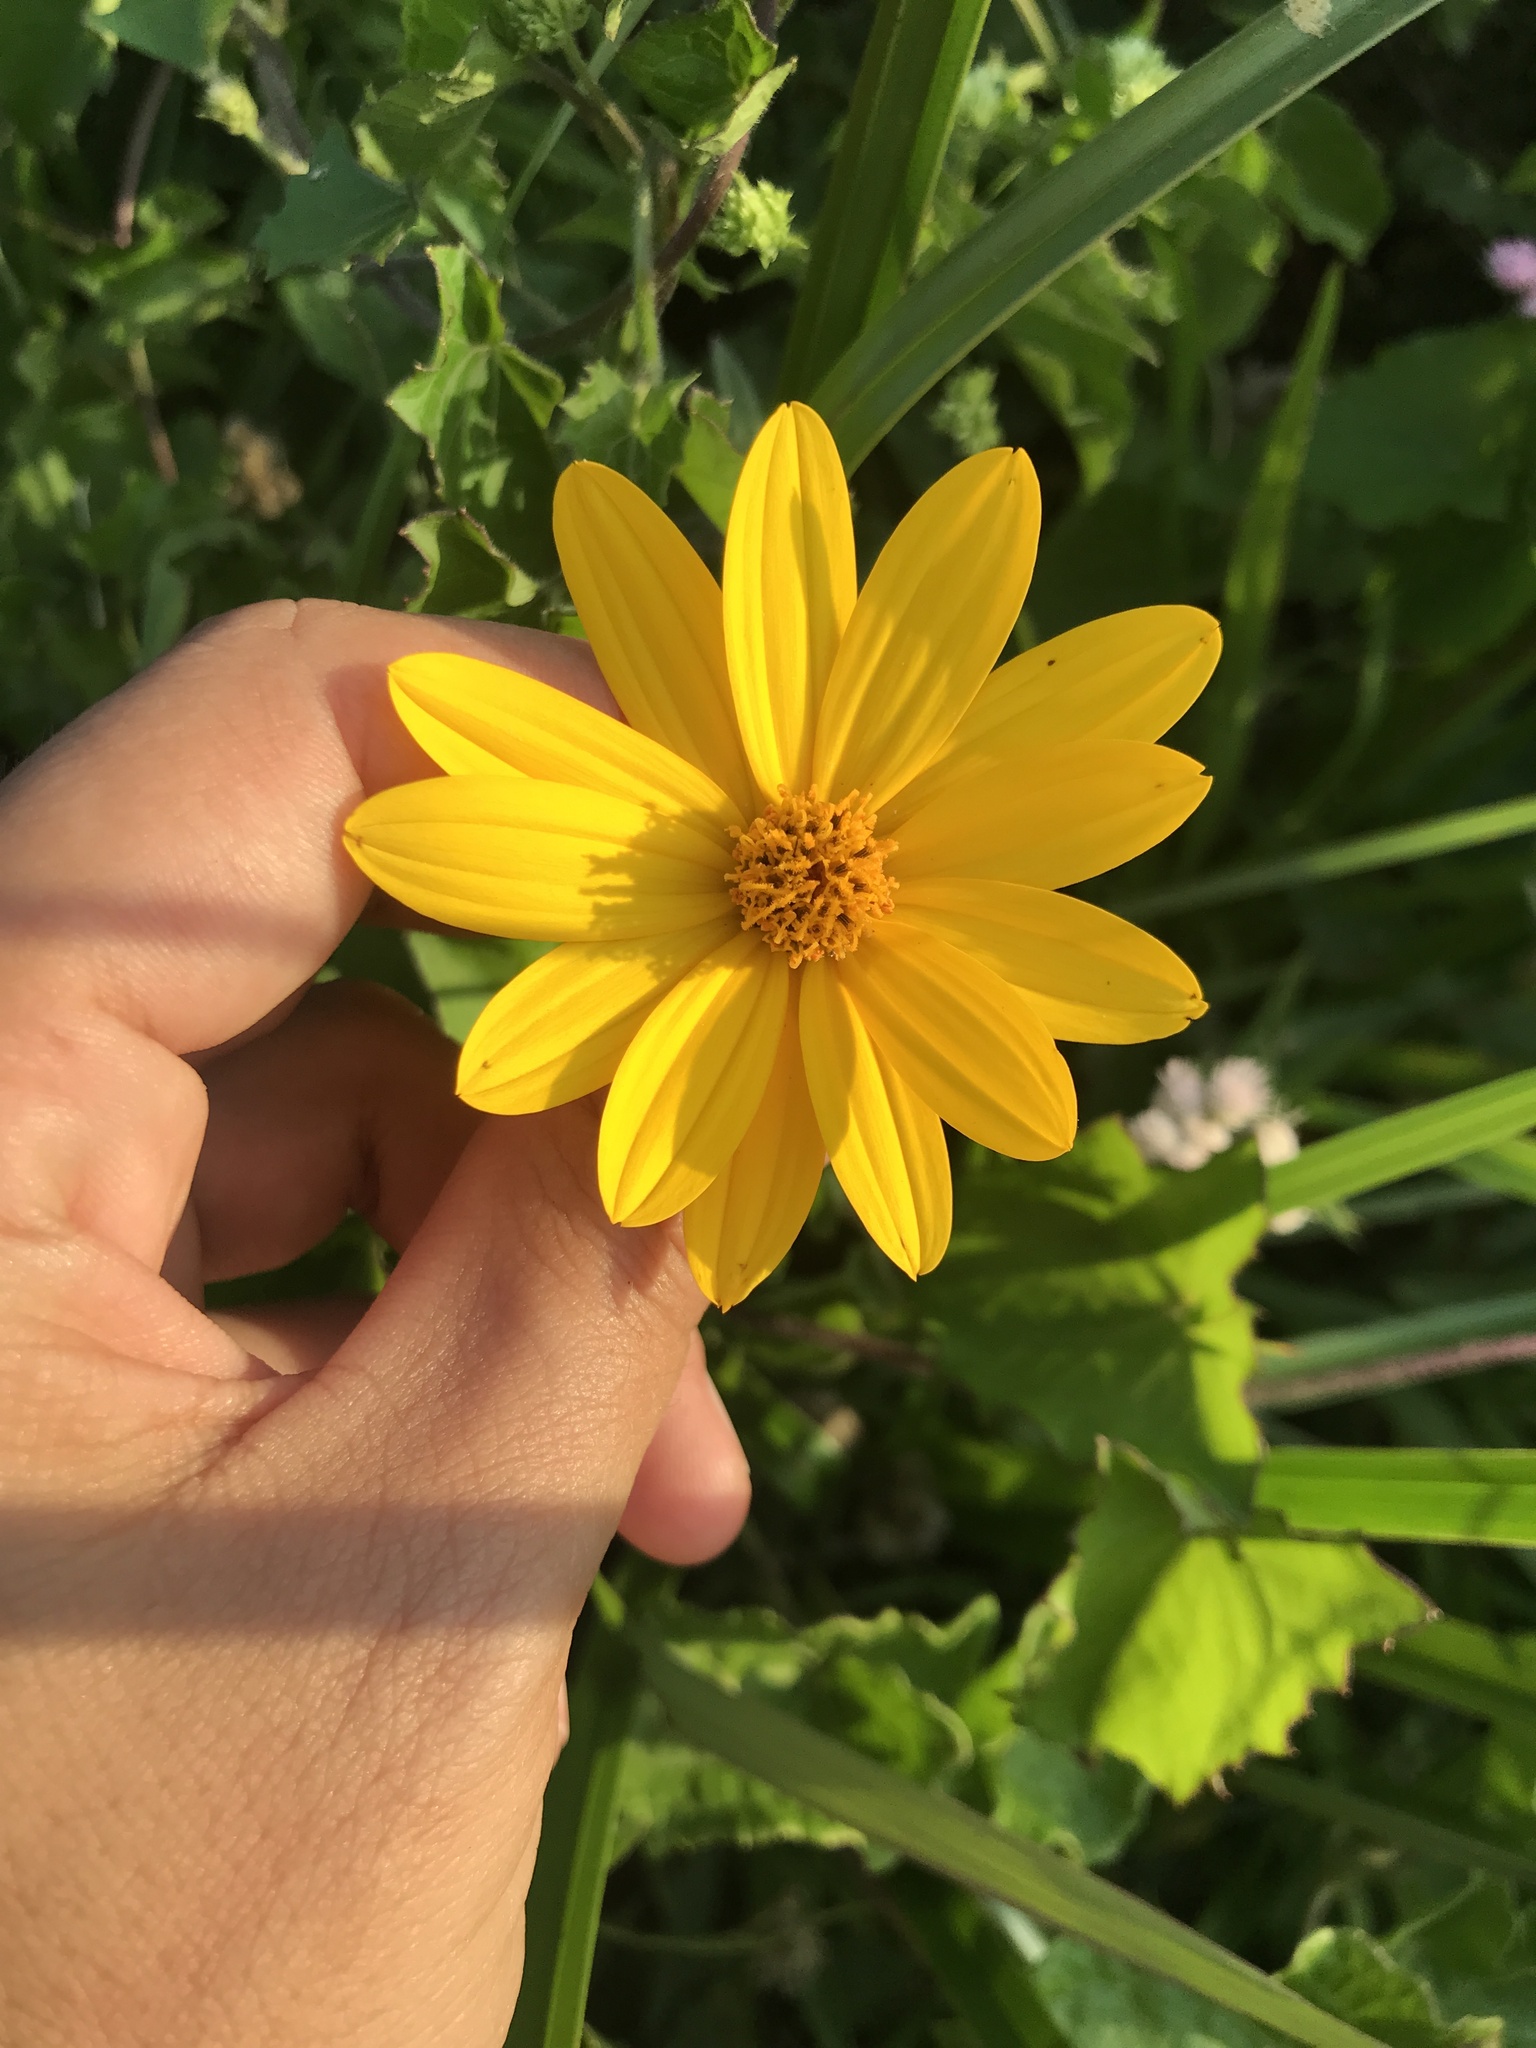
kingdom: Plantae
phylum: Tracheophyta
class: Magnoliopsida
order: Asterales
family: Asteraceae
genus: Wedelia
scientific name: Wedelia montevidensis
